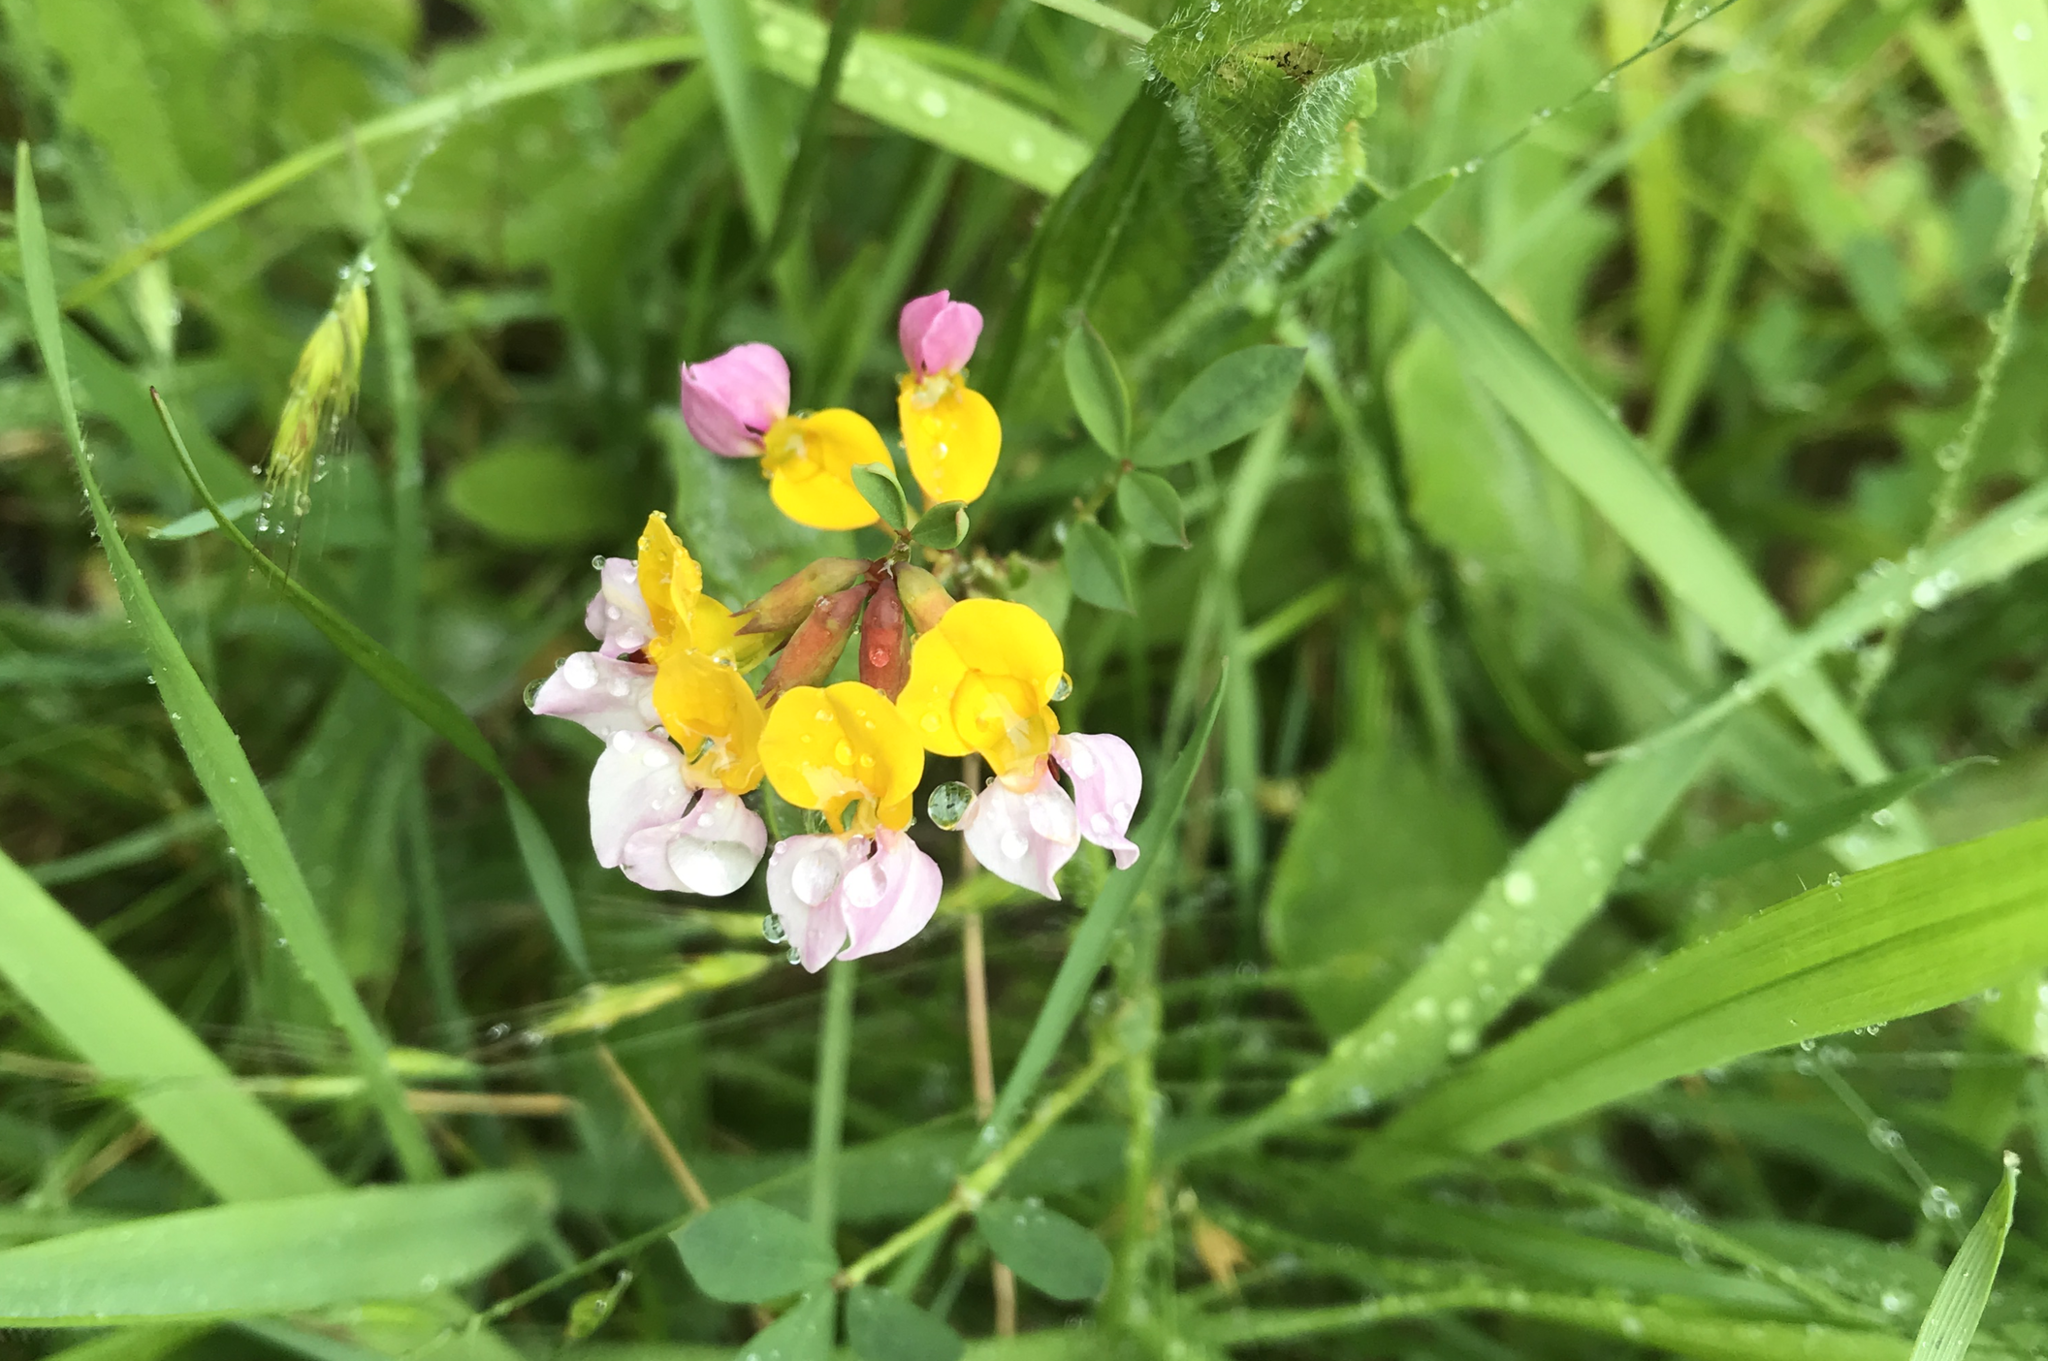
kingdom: Plantae
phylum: Tracheophyta
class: Magnoliopsida
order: Fabales
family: Fabaceae
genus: Hosackia
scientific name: Hosackia gracilis
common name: Seaside bird's-foot lotus
